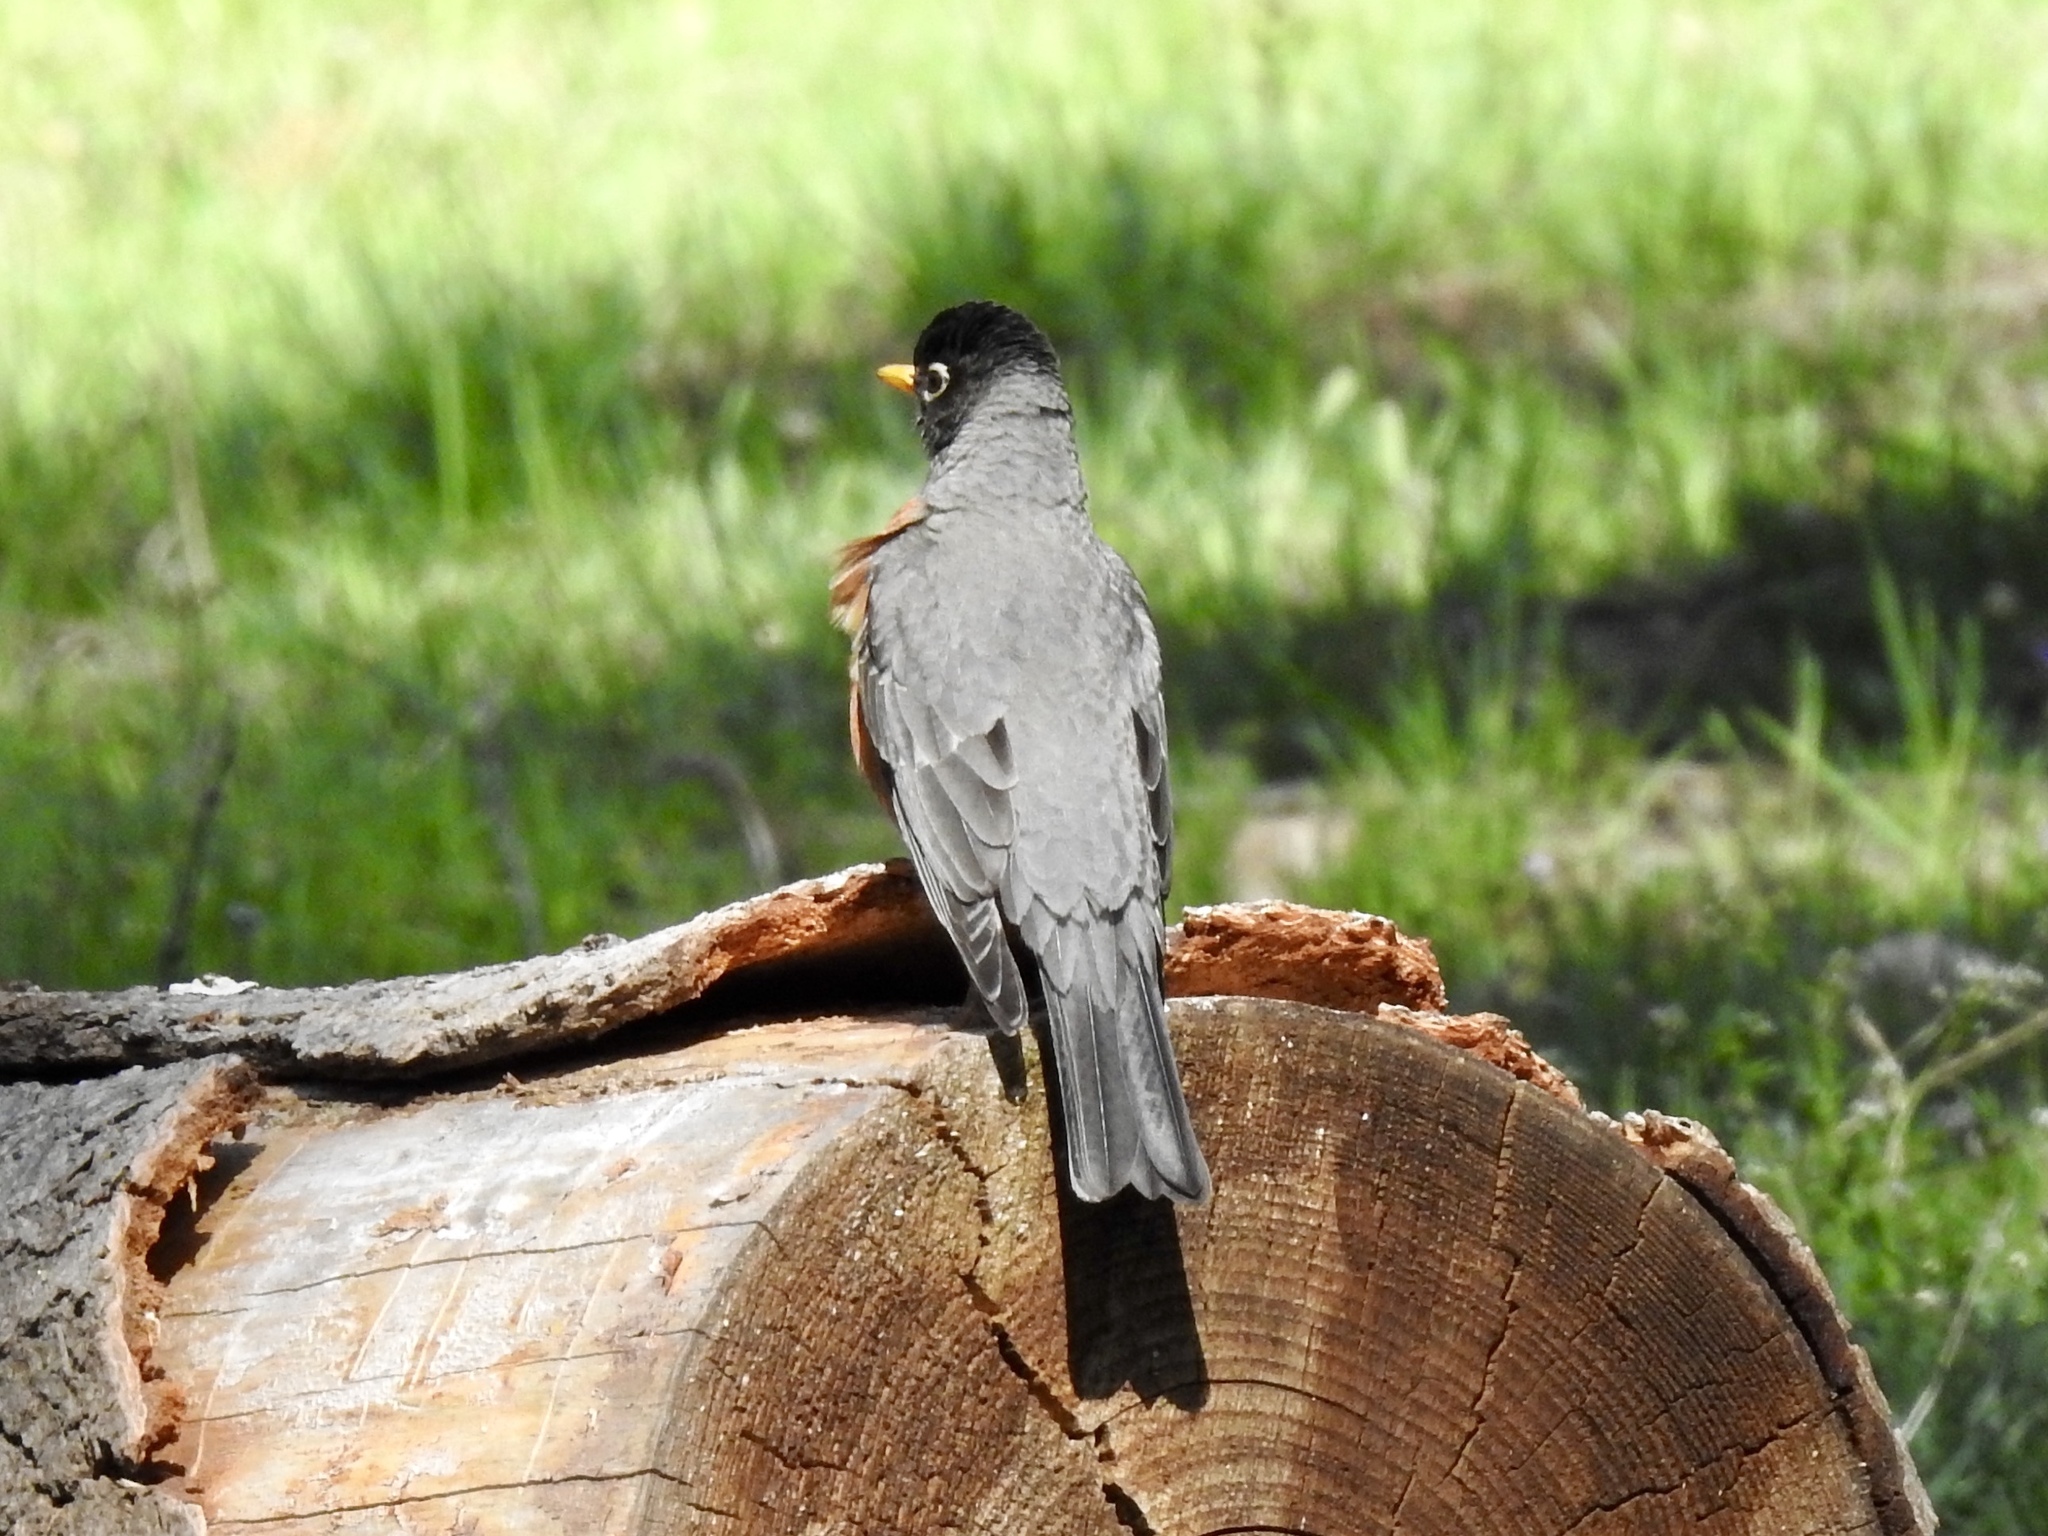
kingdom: Animalia
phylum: Chordata
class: Aves
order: Passeriformes
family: Turdidae
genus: Turdus
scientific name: Turdus migratorius
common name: American robin
